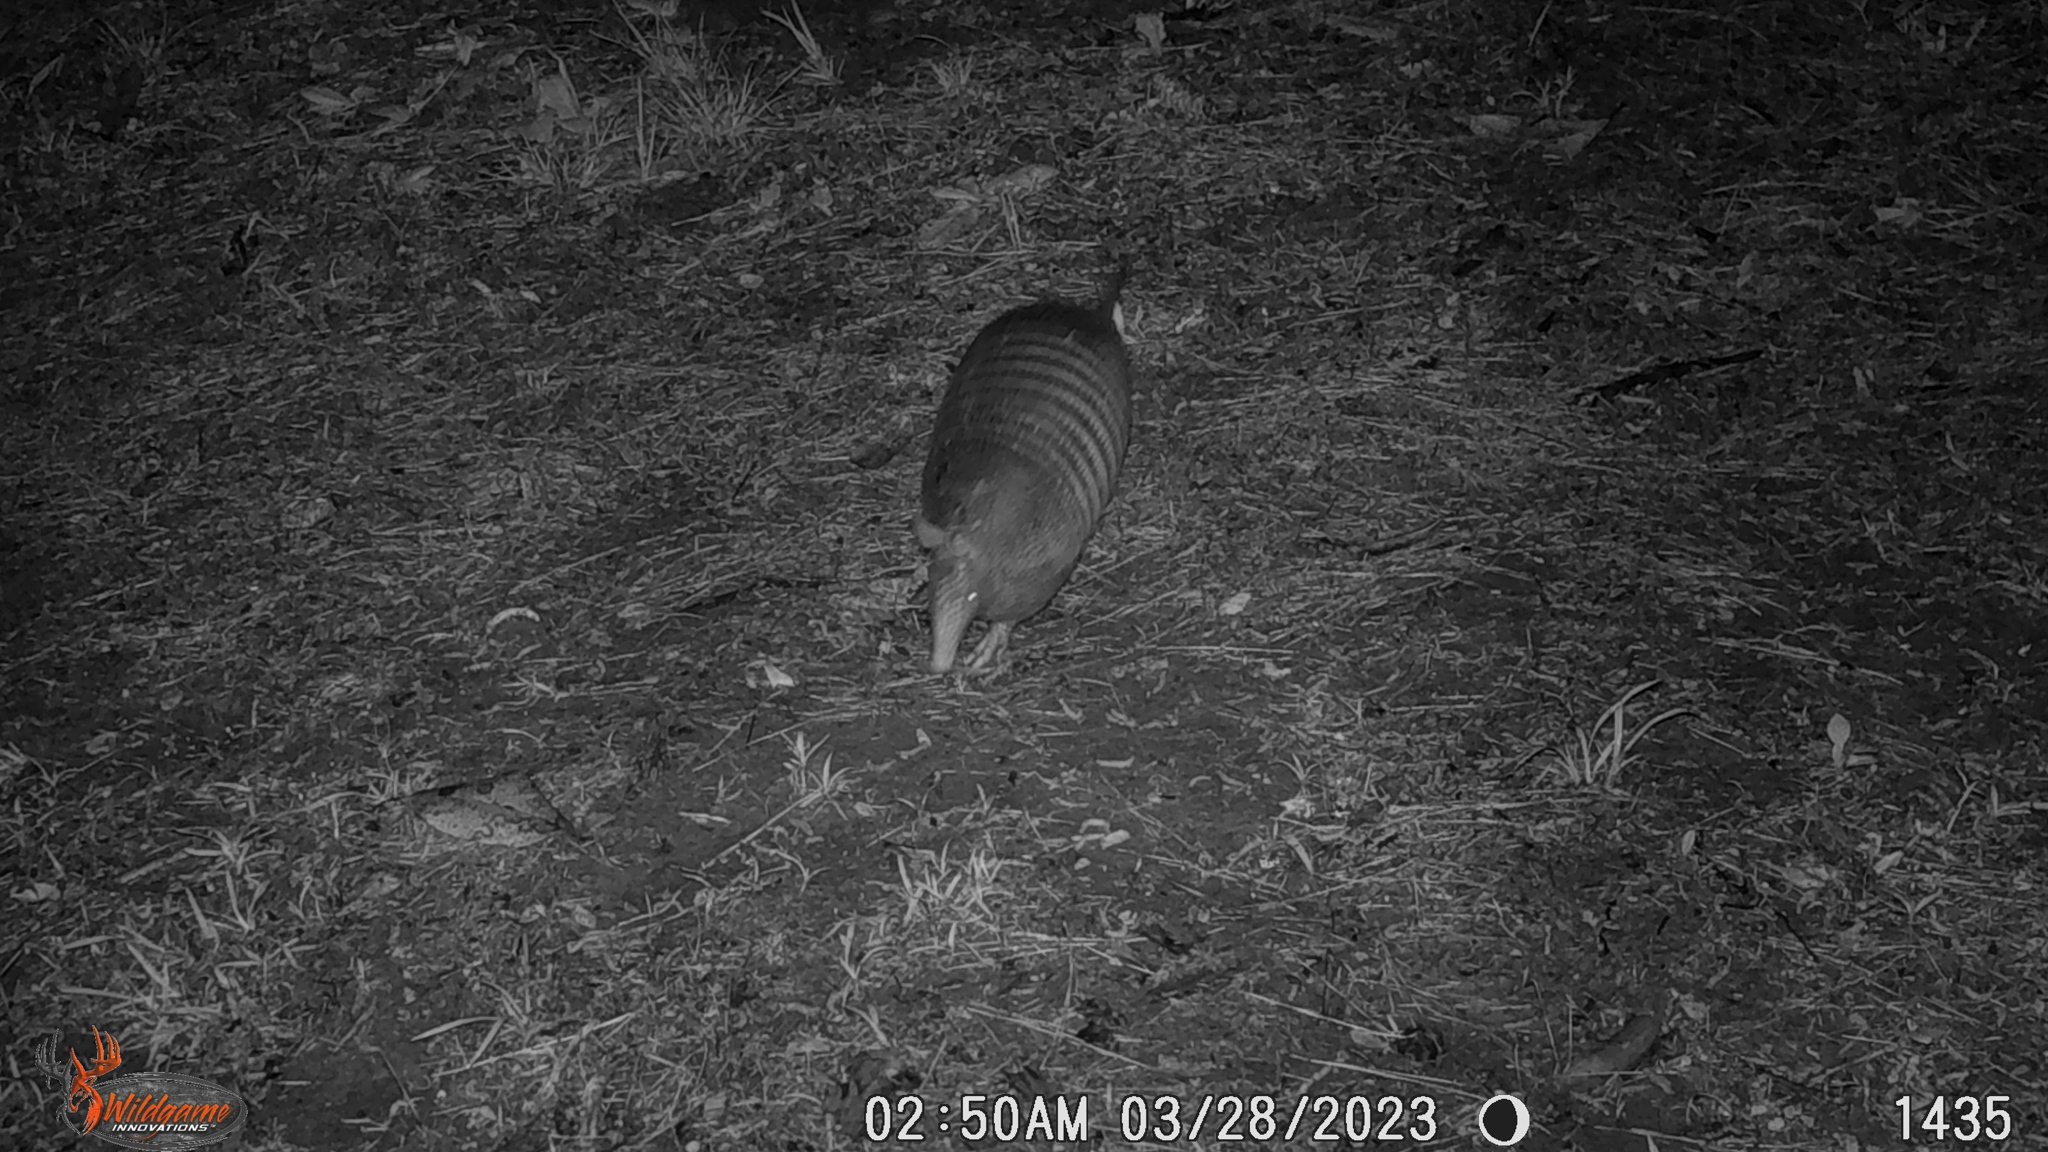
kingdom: Animalia
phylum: Chordata
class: Mammalia
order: Cingulata
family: Dasypodidae
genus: Dasypus
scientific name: Dasypus novemcinctus
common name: Nine-banded armadillo
